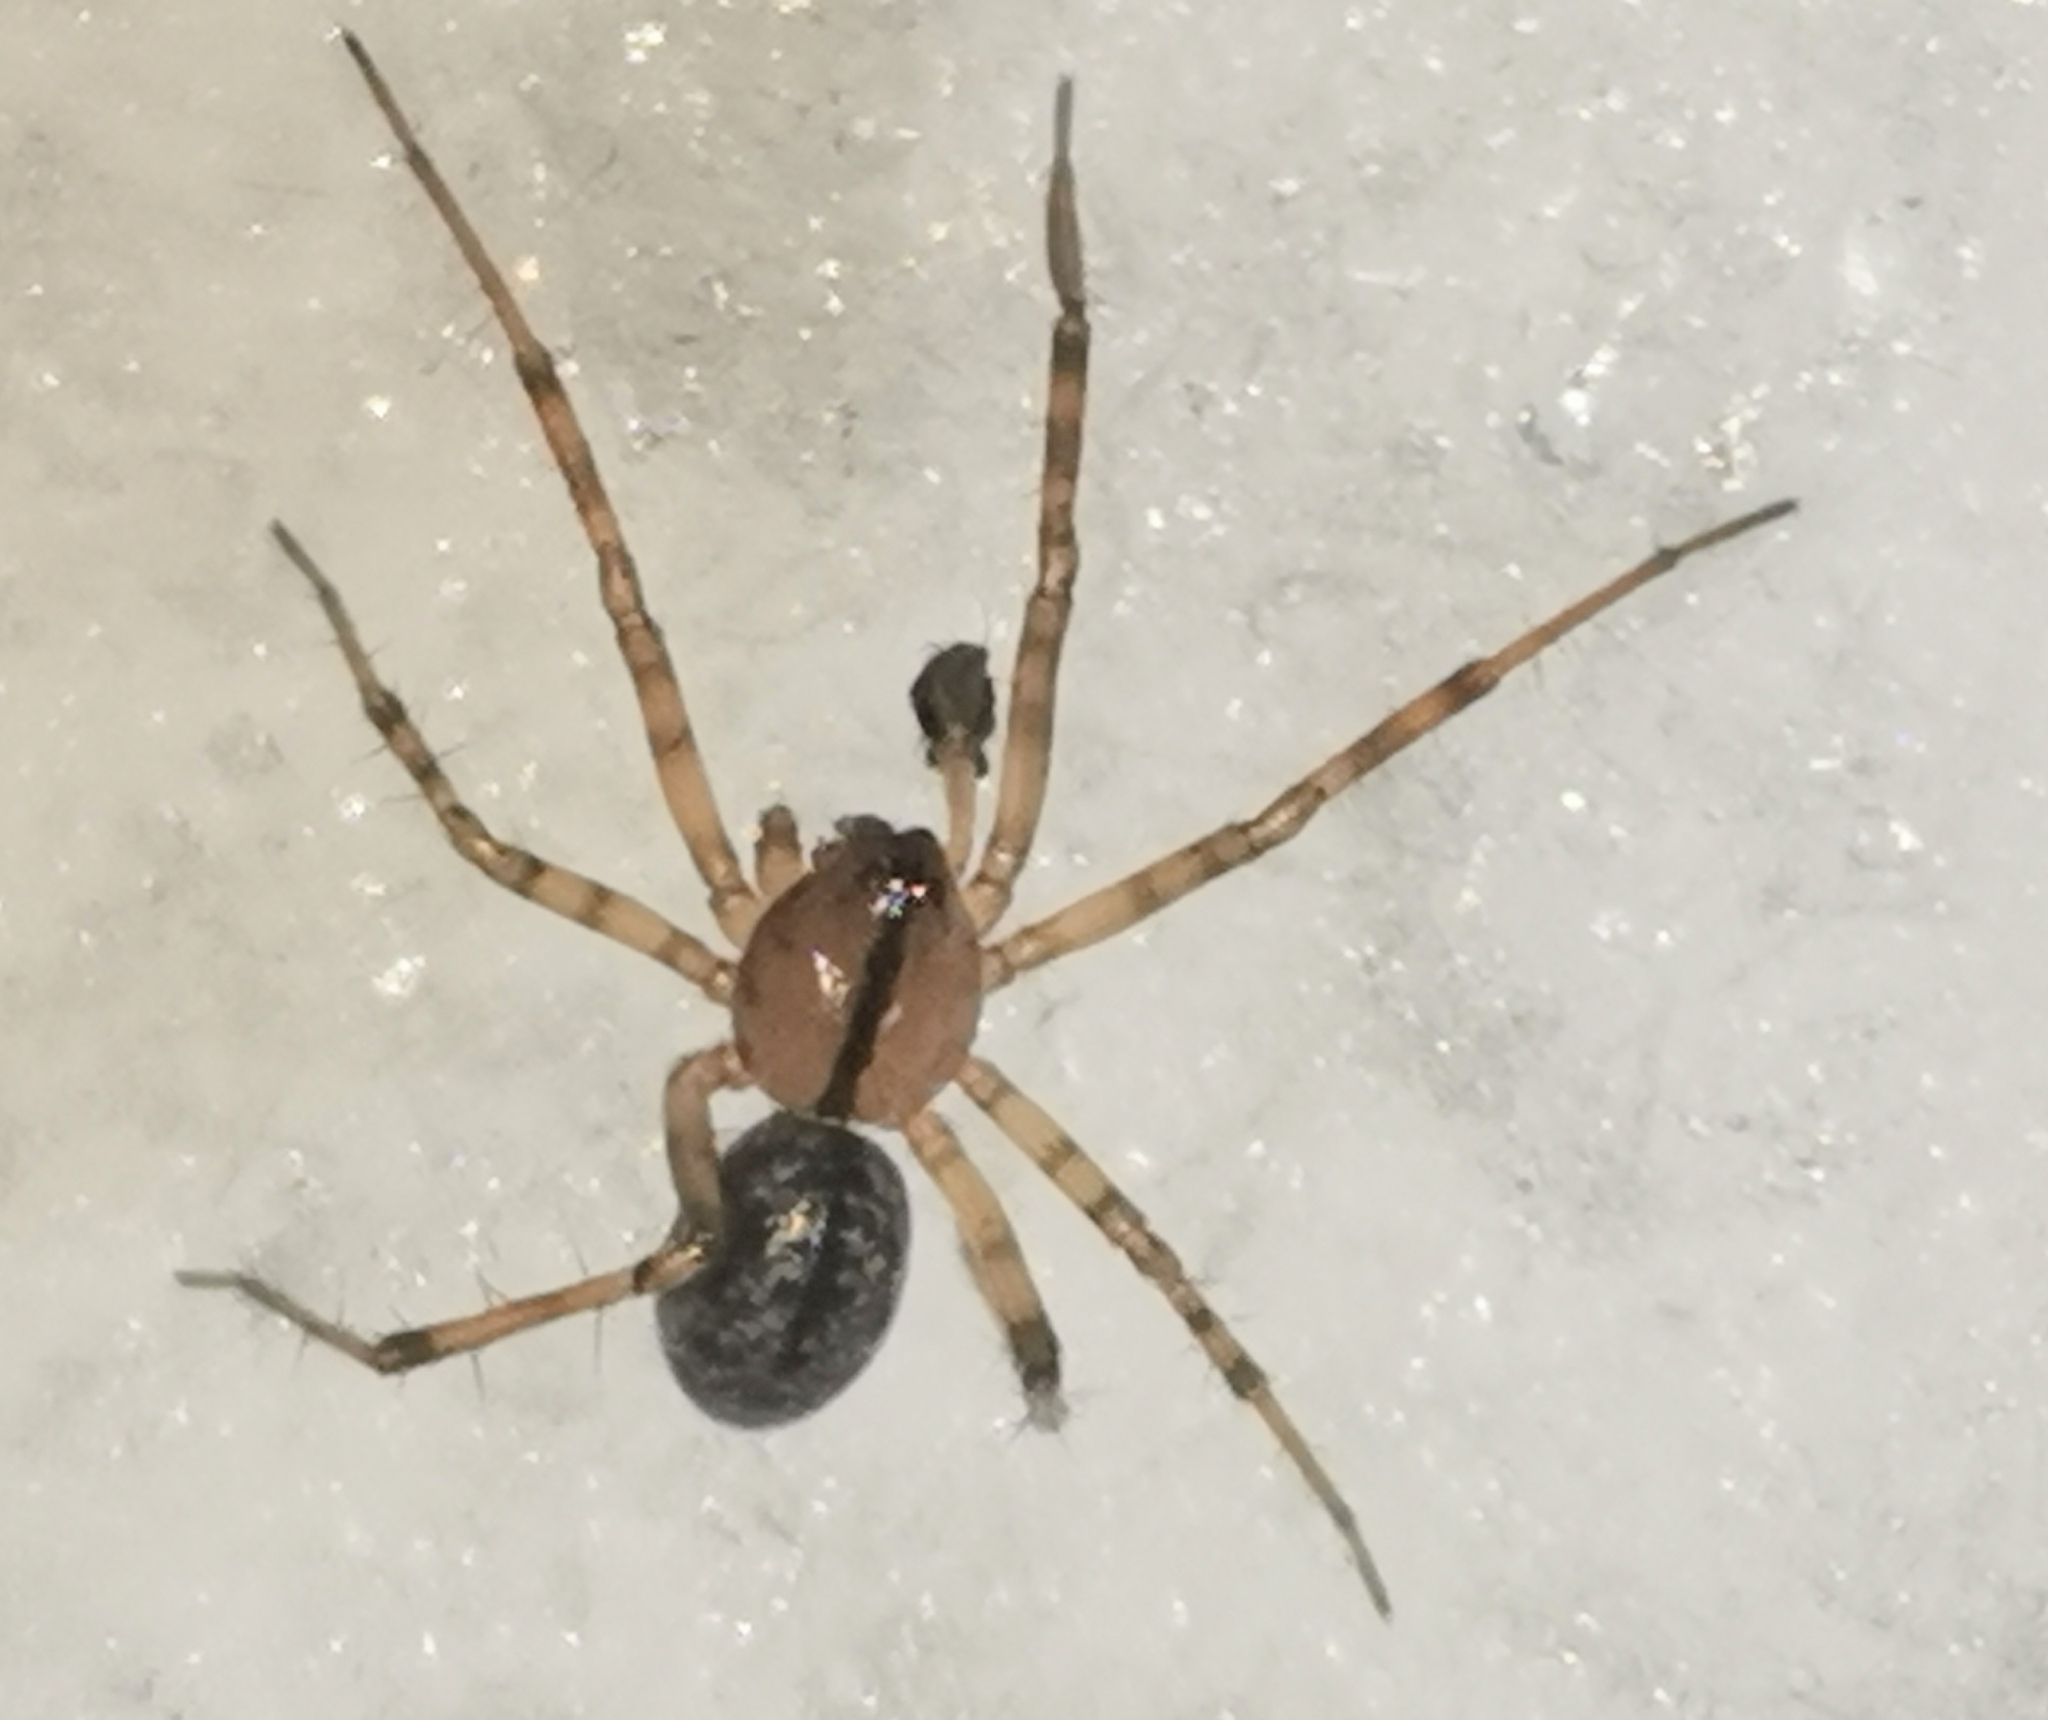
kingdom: Animalia
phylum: Arthropoda
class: Arachnida
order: Araneae
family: Linyphiidae
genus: Stemonyphantes
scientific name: Stemonyphantes lineatus
